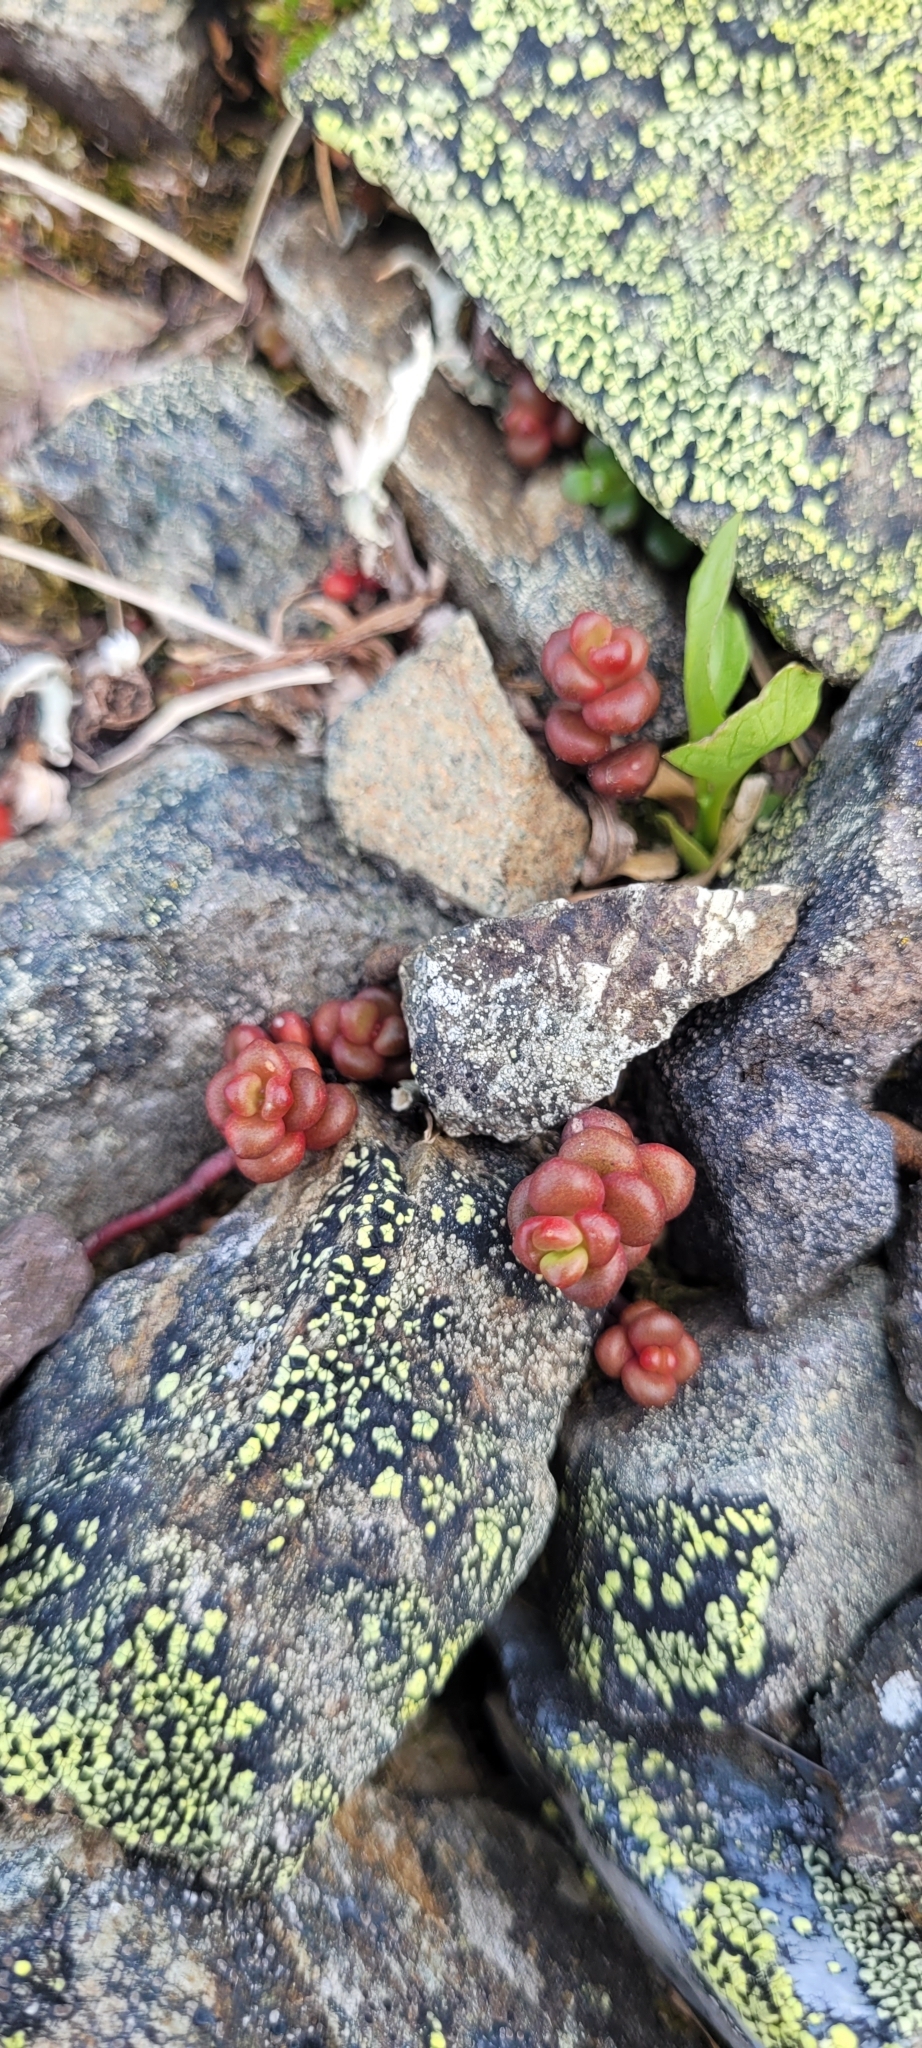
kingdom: Plantae
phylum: Tracheophyta
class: Magnoliopsida
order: Saxifragales
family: Crassulaceae
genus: Sedum
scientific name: Sedum divergens
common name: Cascade stonecrop
